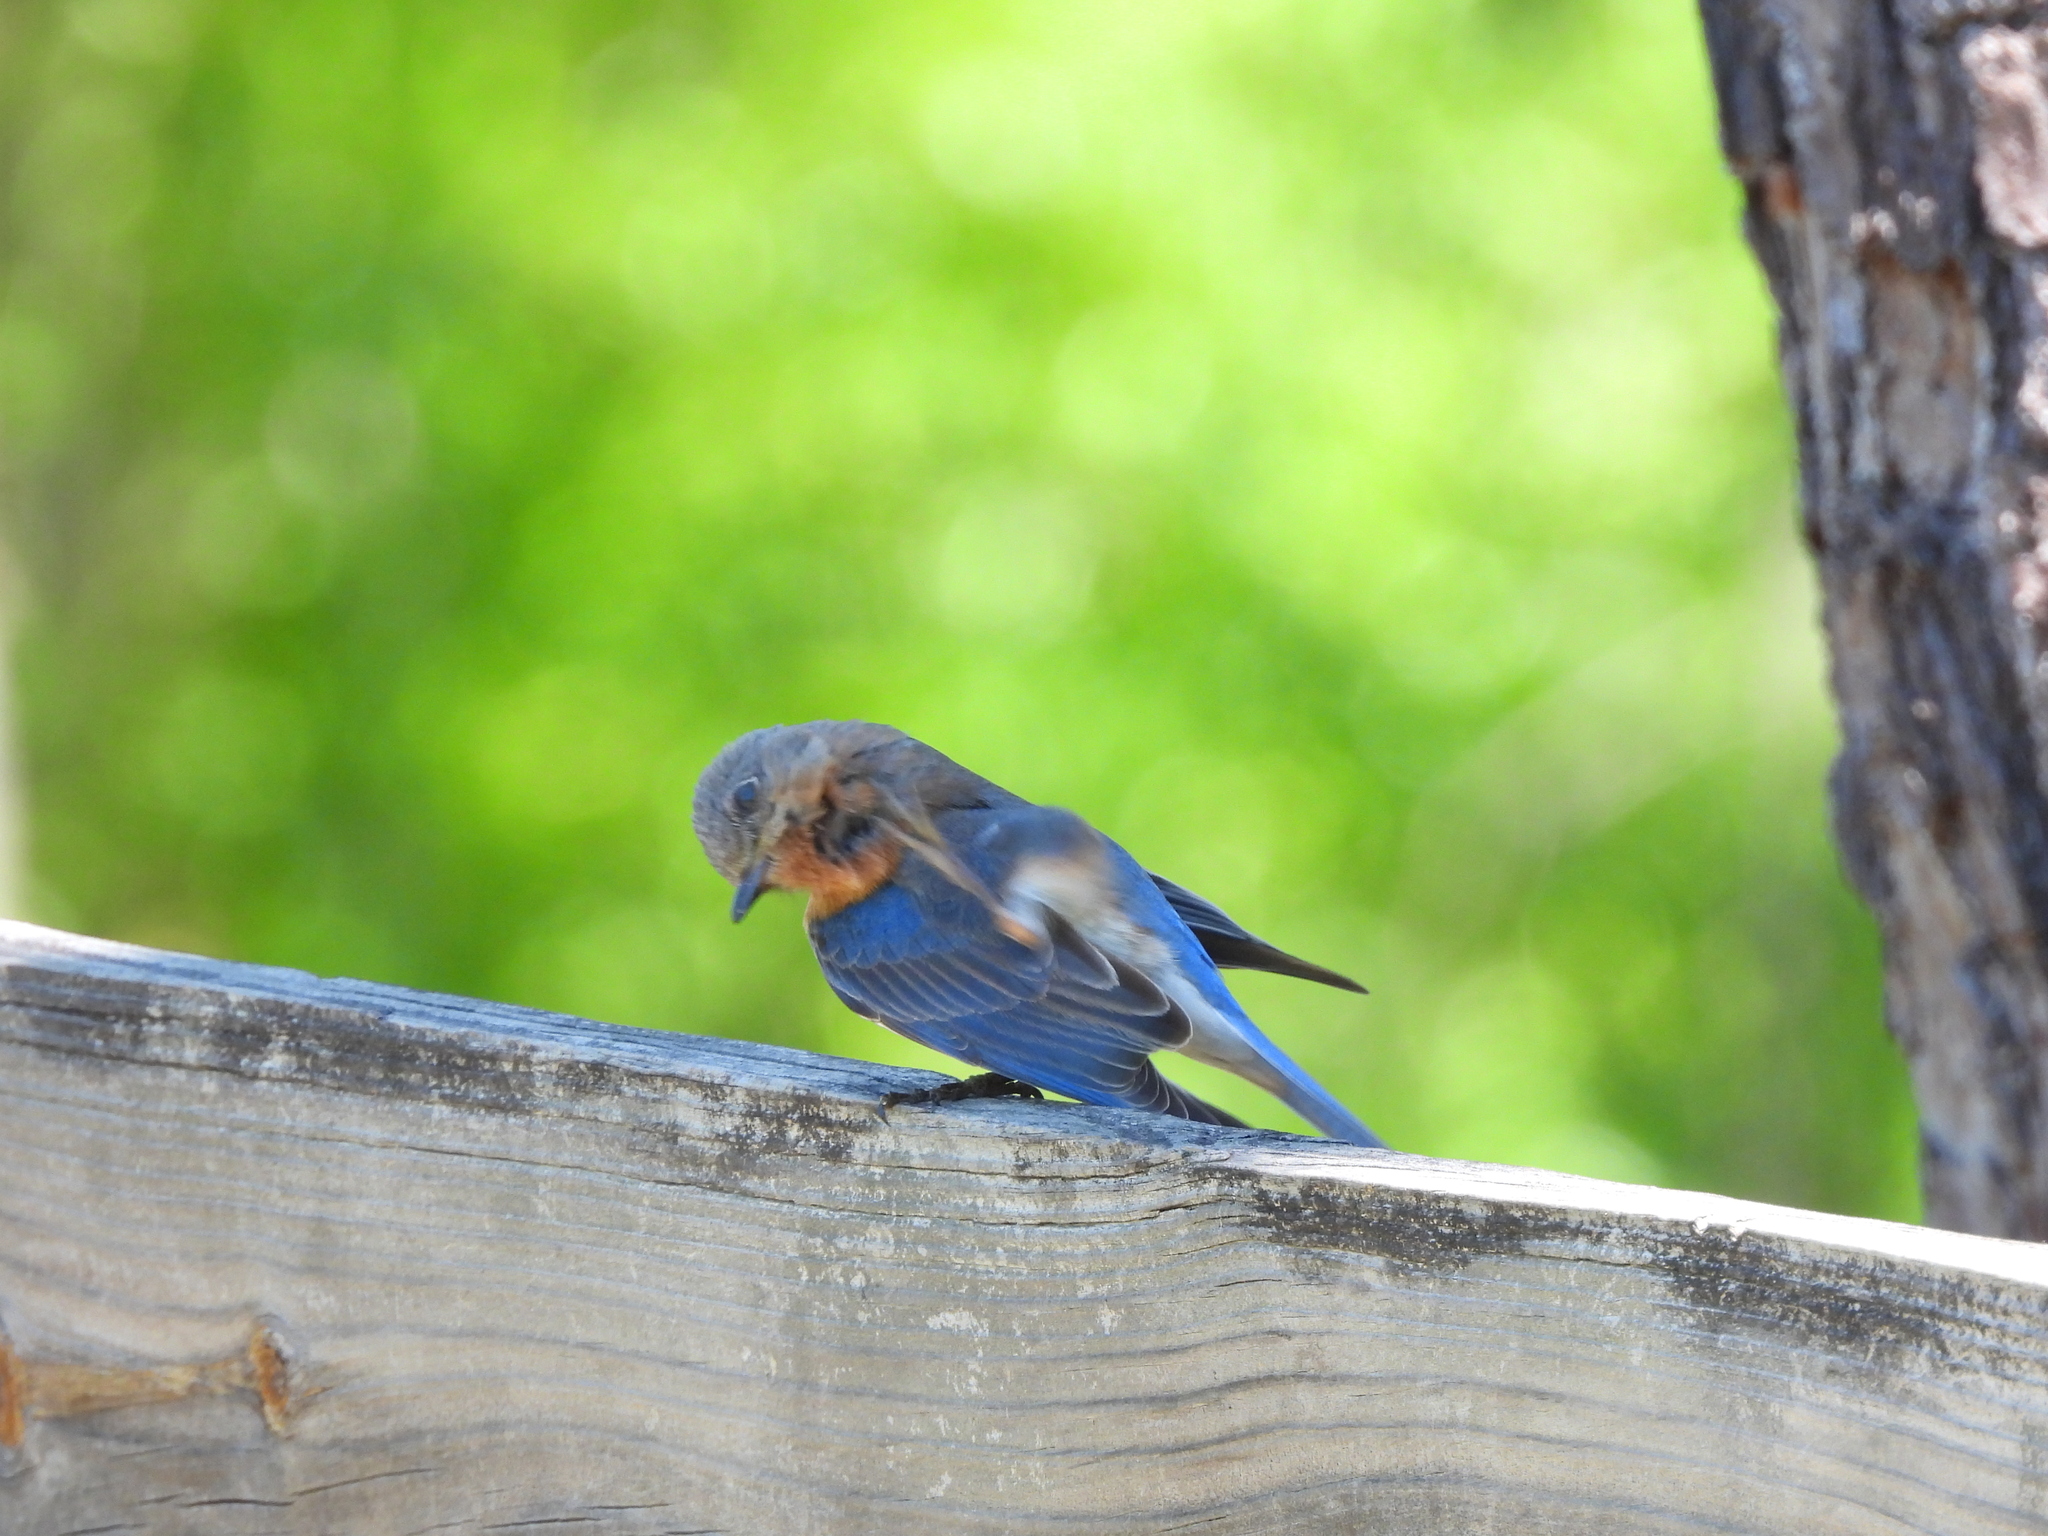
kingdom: Animalia
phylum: Chordata
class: Aves
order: Passeriformes
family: Turdidae
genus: Sialia
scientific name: Sialia sialis
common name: Eastern bluebird
